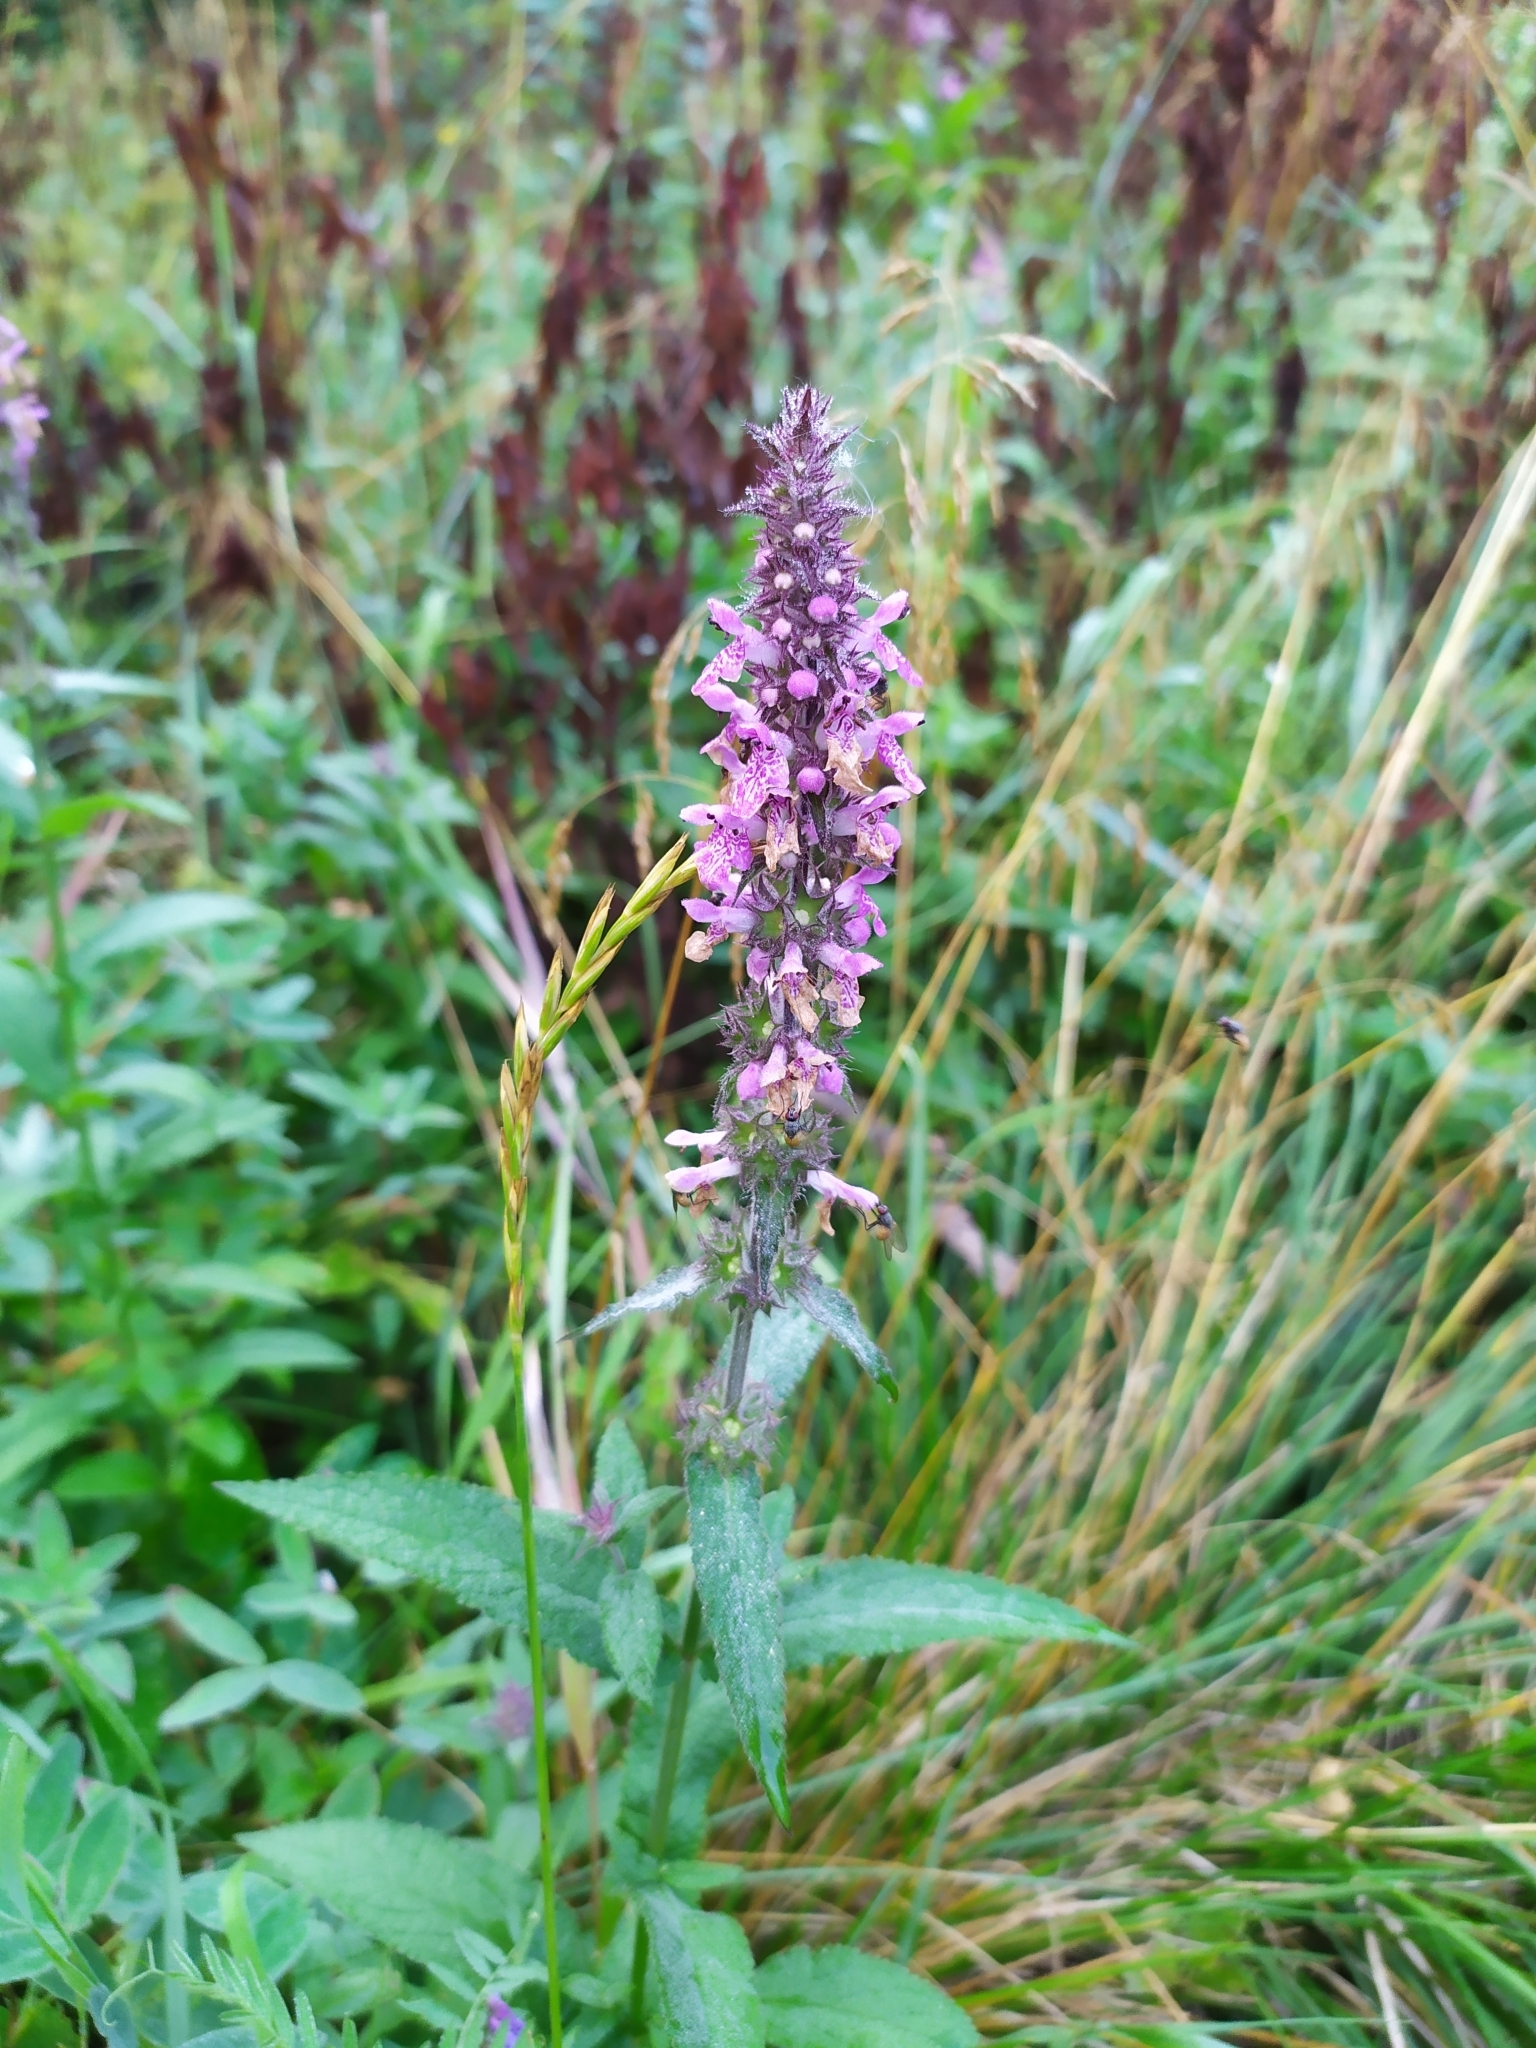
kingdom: Plantae
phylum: Tracheophyta
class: Magnoliopsida
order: Lamiales
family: Lamiaceae
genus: Stachys
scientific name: Stachys palustris
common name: Marsh woundwort
